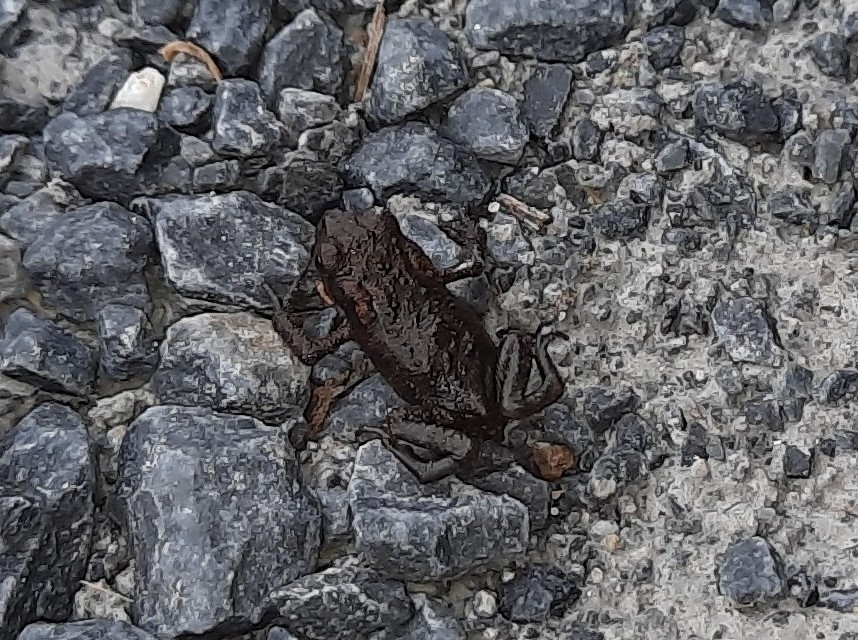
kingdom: Animalia
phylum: Chordata
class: Amphibia
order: Anura
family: Bufonidae
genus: Bufo
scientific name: Bufo bufo
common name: Common toad
